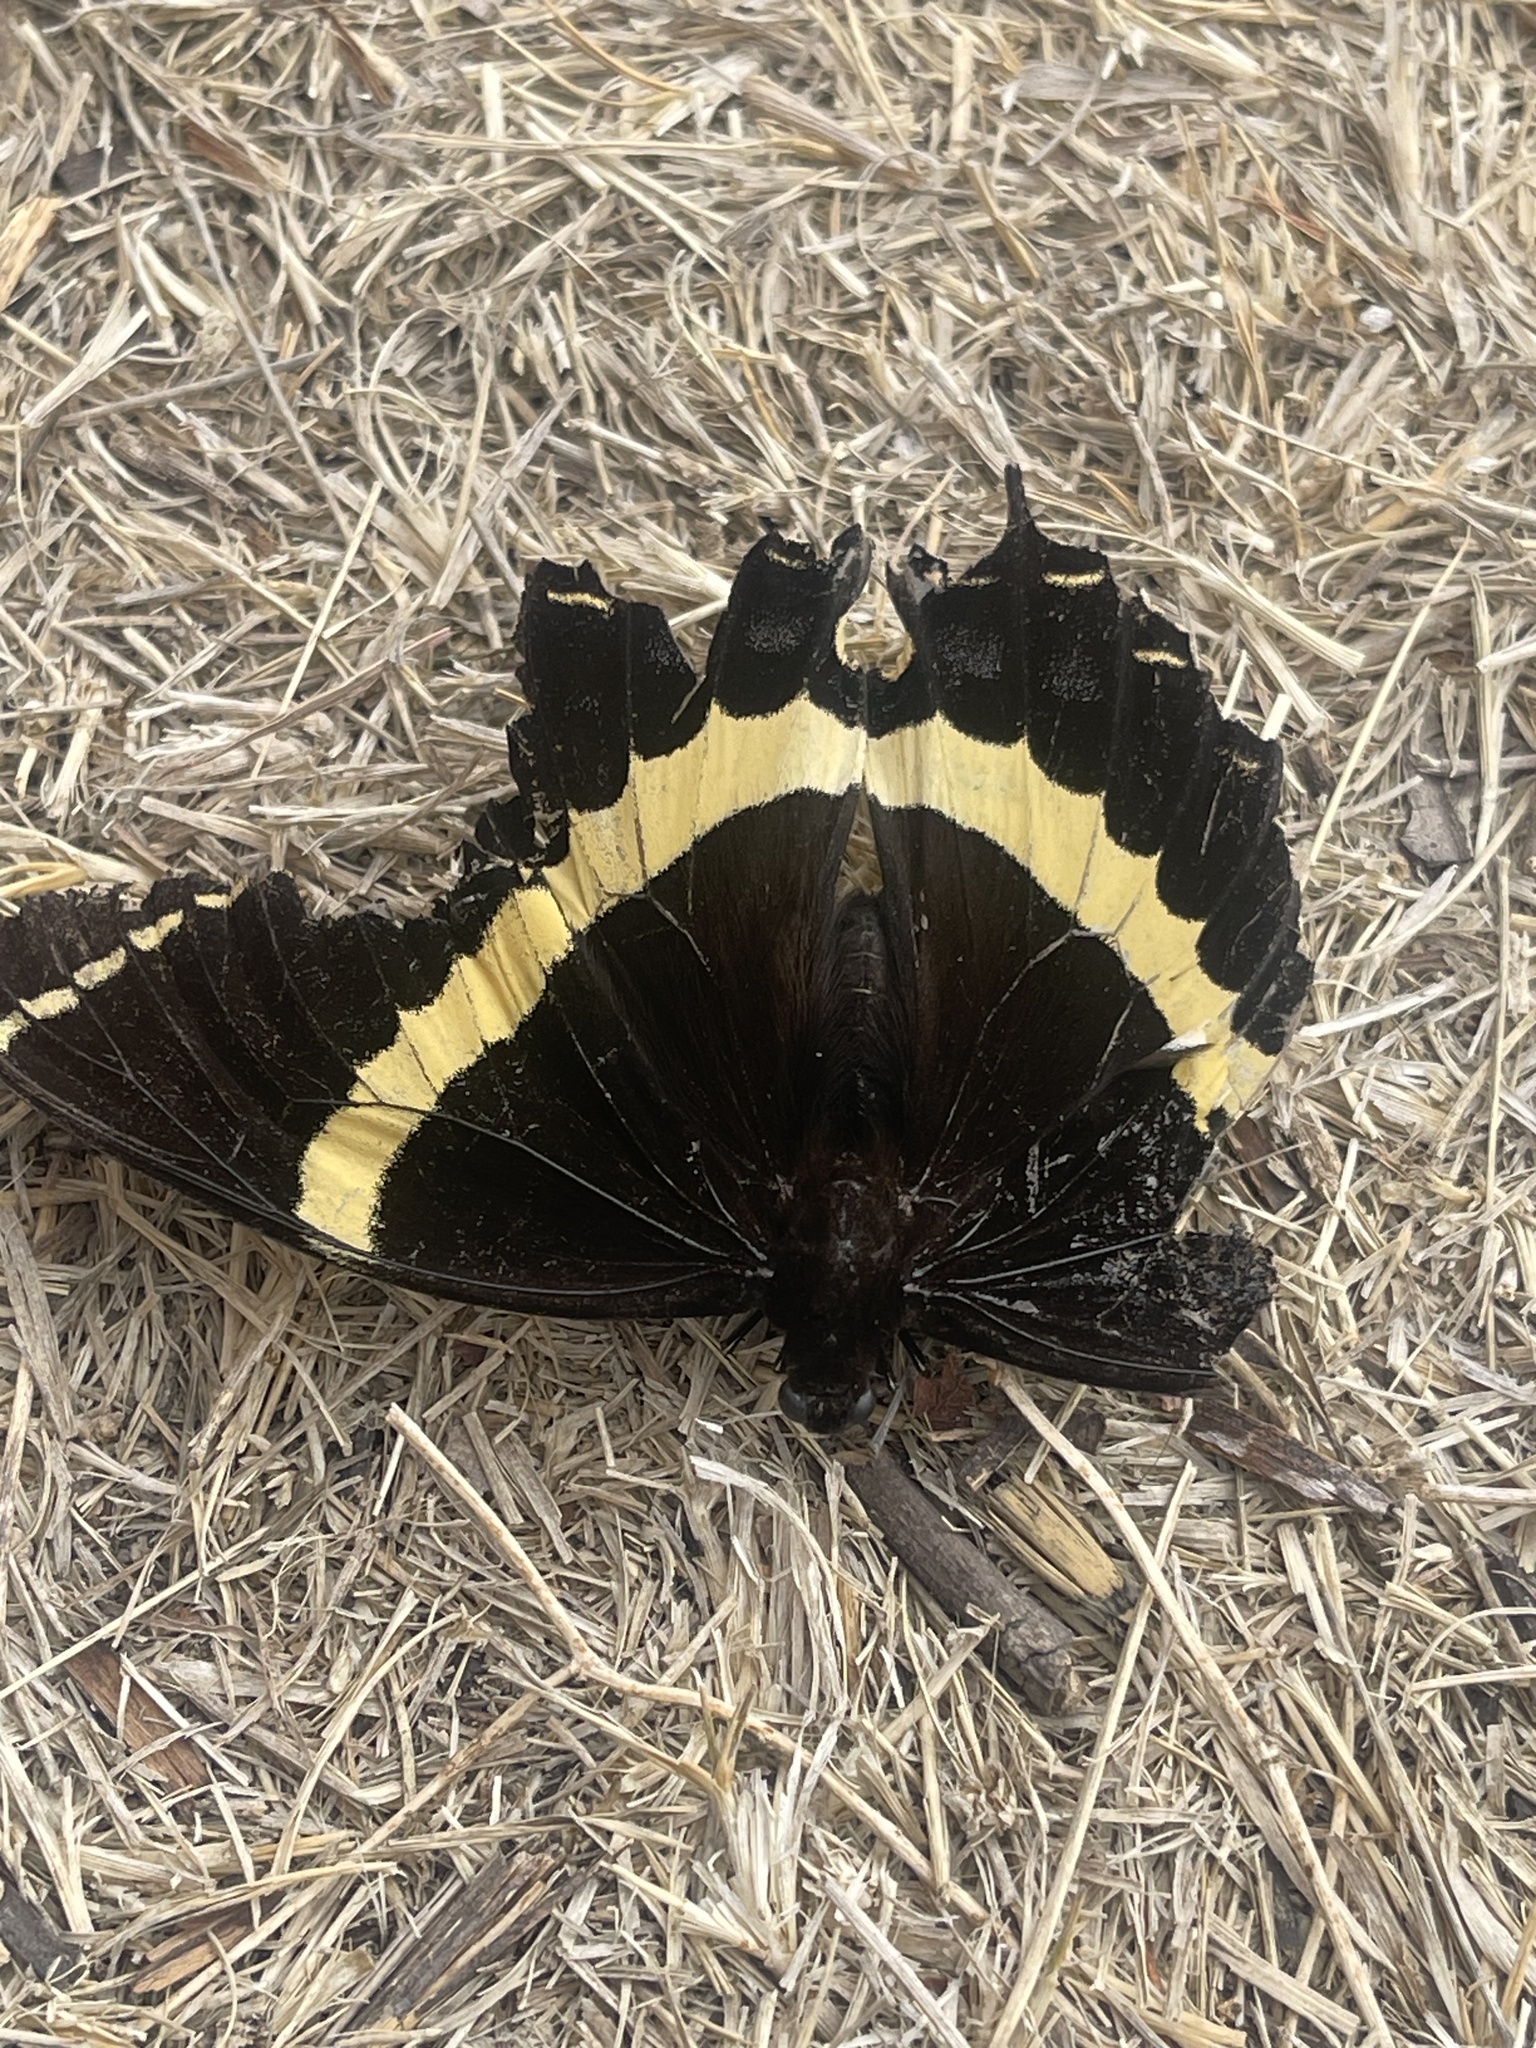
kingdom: Animalia
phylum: Arthropoda
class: Insecta
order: Lepidoptera
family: Papilionidae
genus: Papilio
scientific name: Papilio garamas
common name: Magnificent swallowtail
